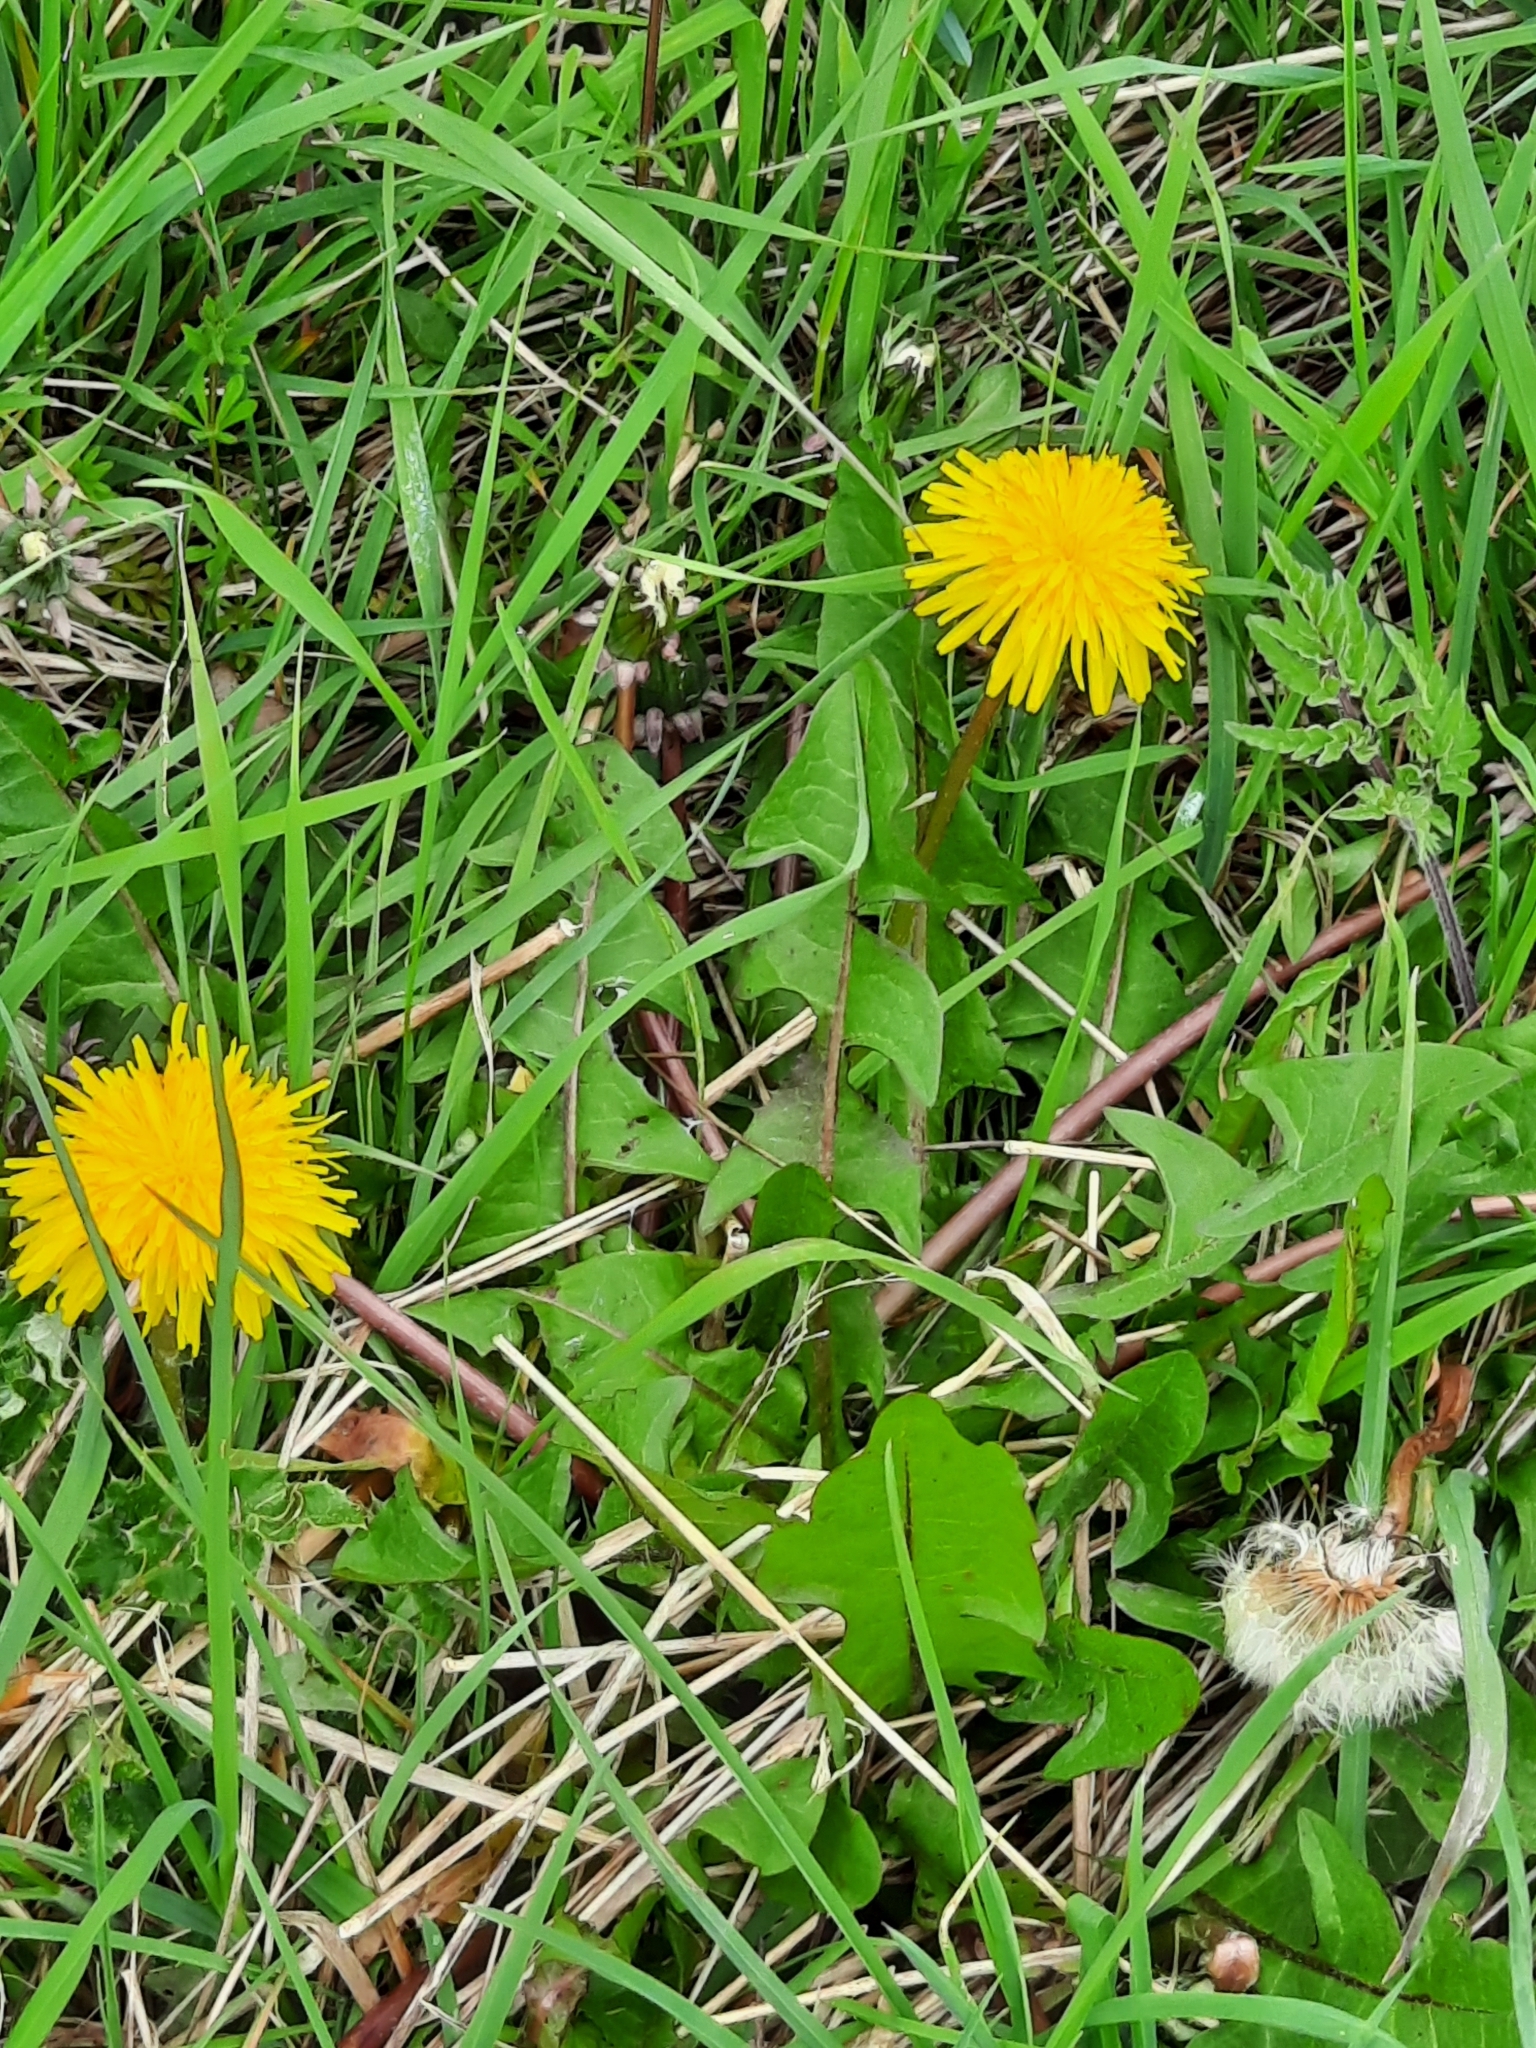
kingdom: Plantae
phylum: Tracheophyta
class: Magnoliopsida
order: Asterales
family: Asteraceae
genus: Taraxacum
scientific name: Taraxacum officinale
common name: Common dandelion
